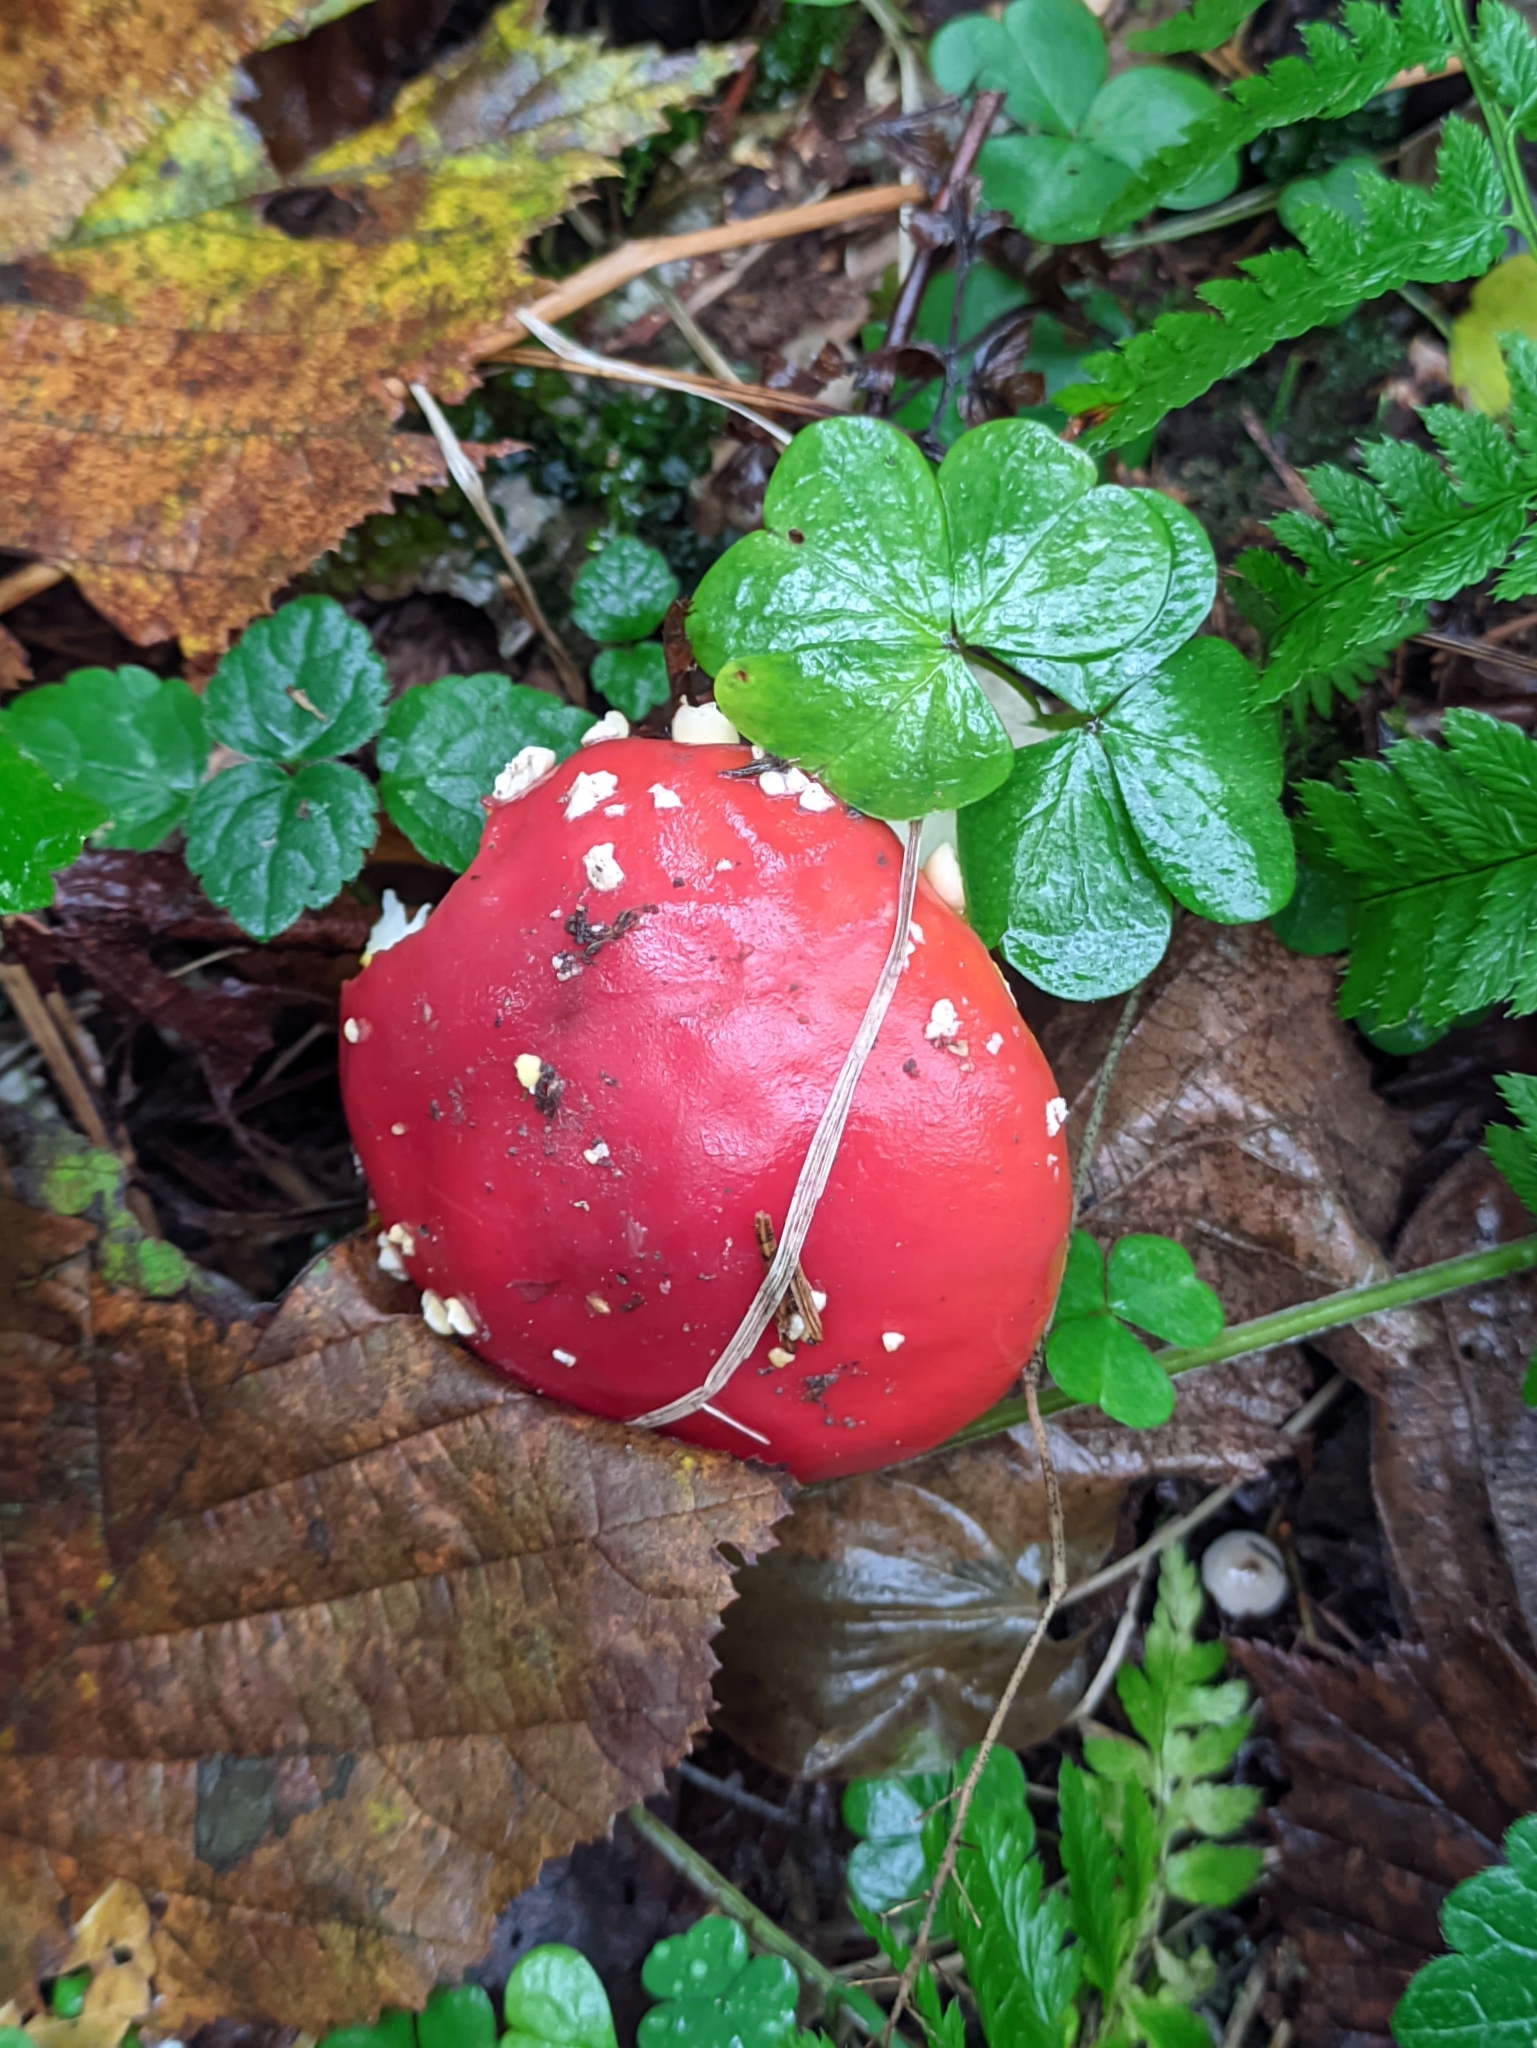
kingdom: Fungi
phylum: Basidiomycota
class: Agaricomycetes
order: Agaricales
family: Amanitaceae
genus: Amanita
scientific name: Amanita muscaria
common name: Fly agaric
